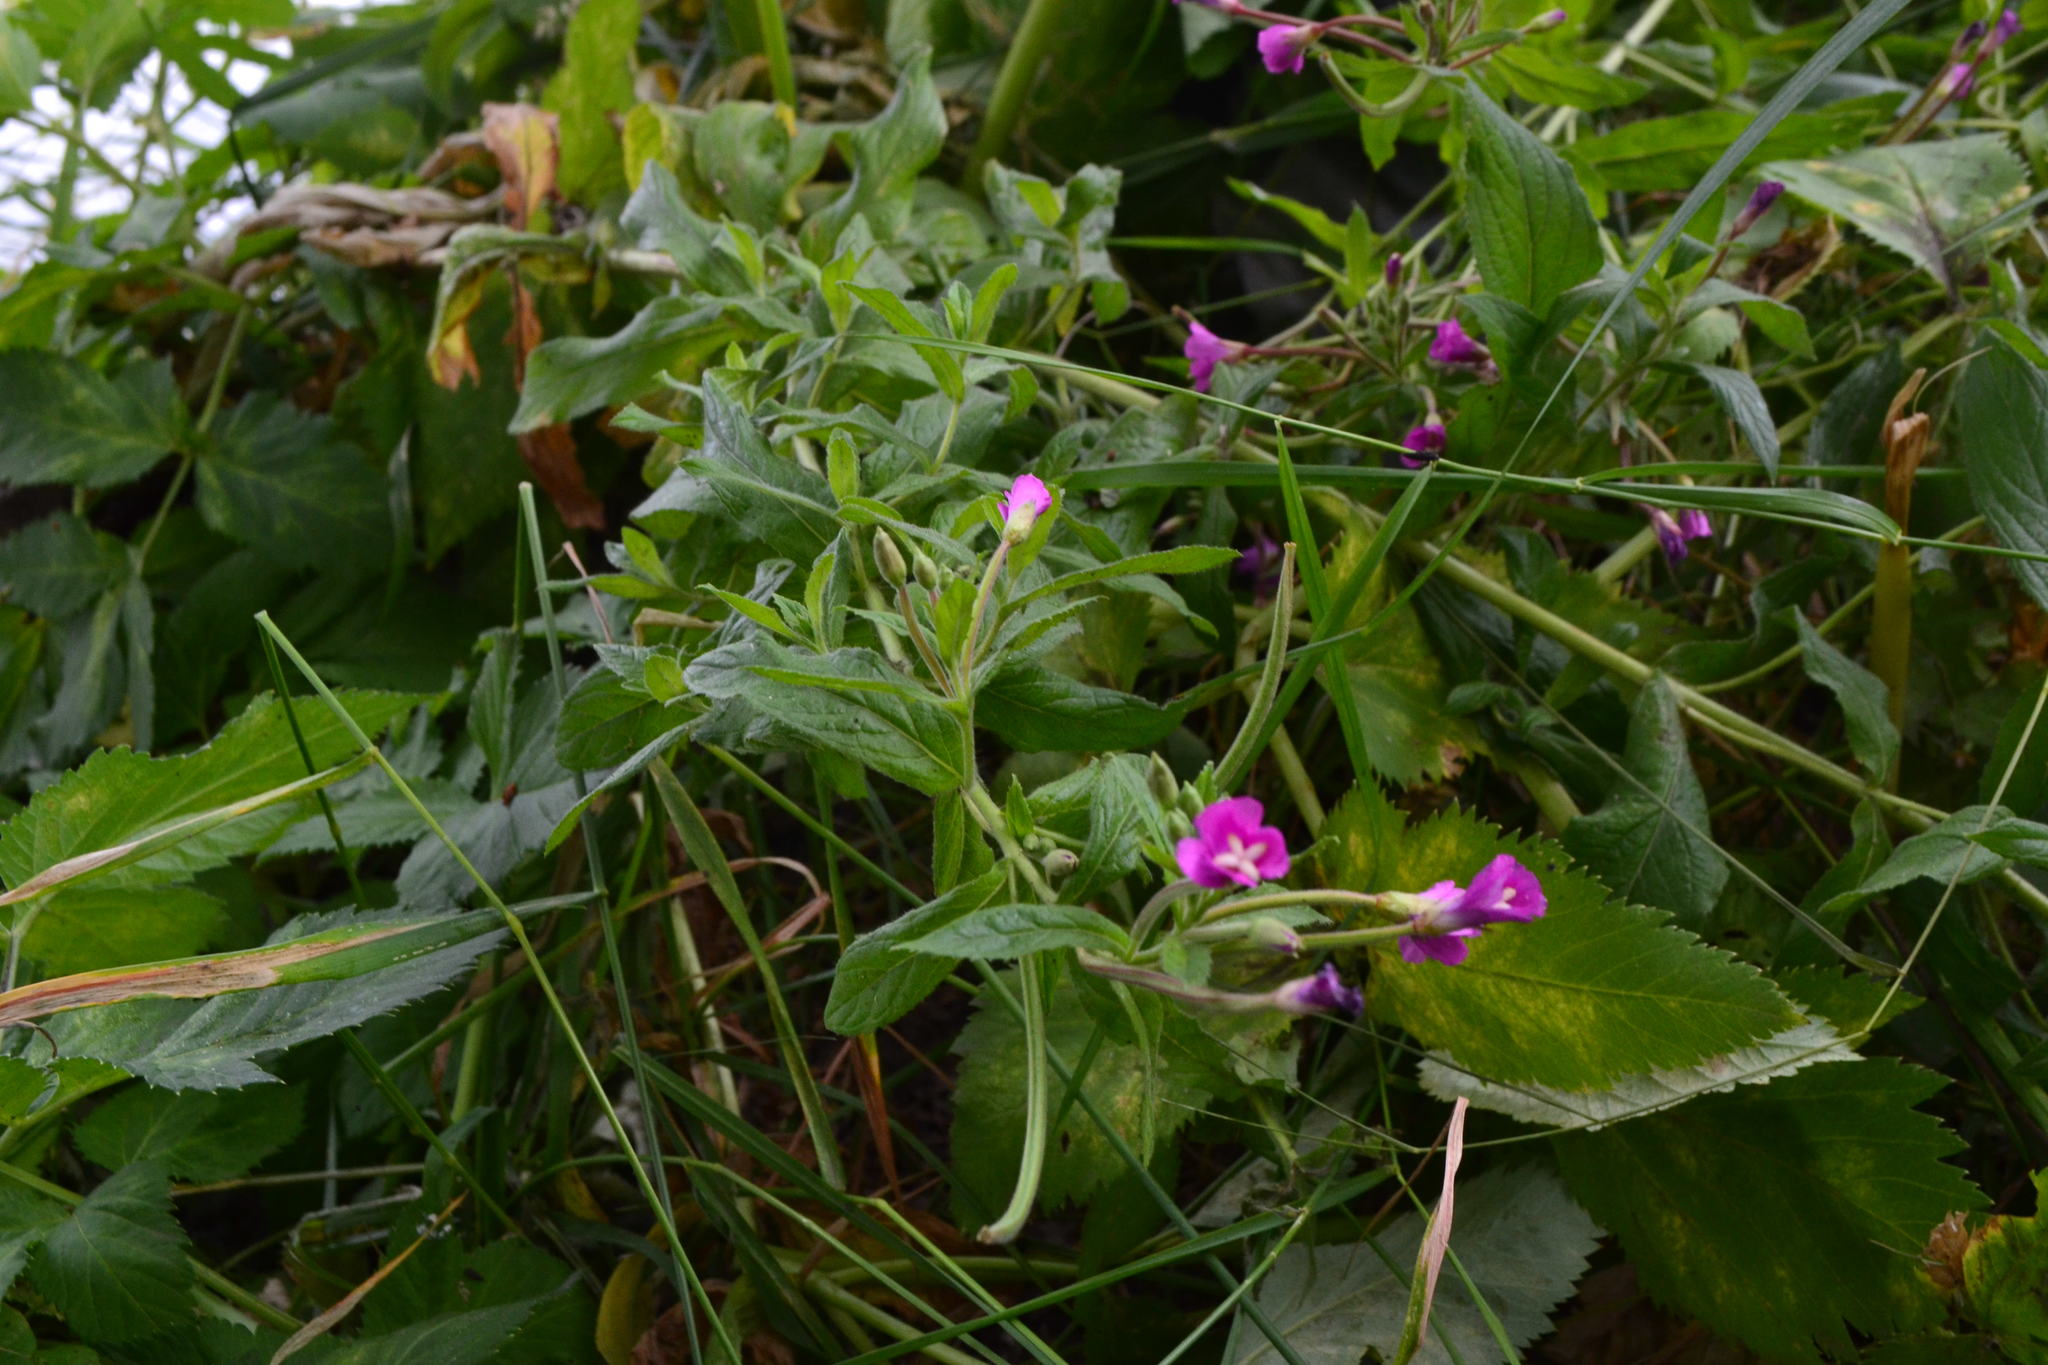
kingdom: Plantae
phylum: Tracheophyta
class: Magnoliopsida
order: Myrtales
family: Onagraceae
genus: Epilobium
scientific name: Epilobium hirsutum
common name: Great willowherb
